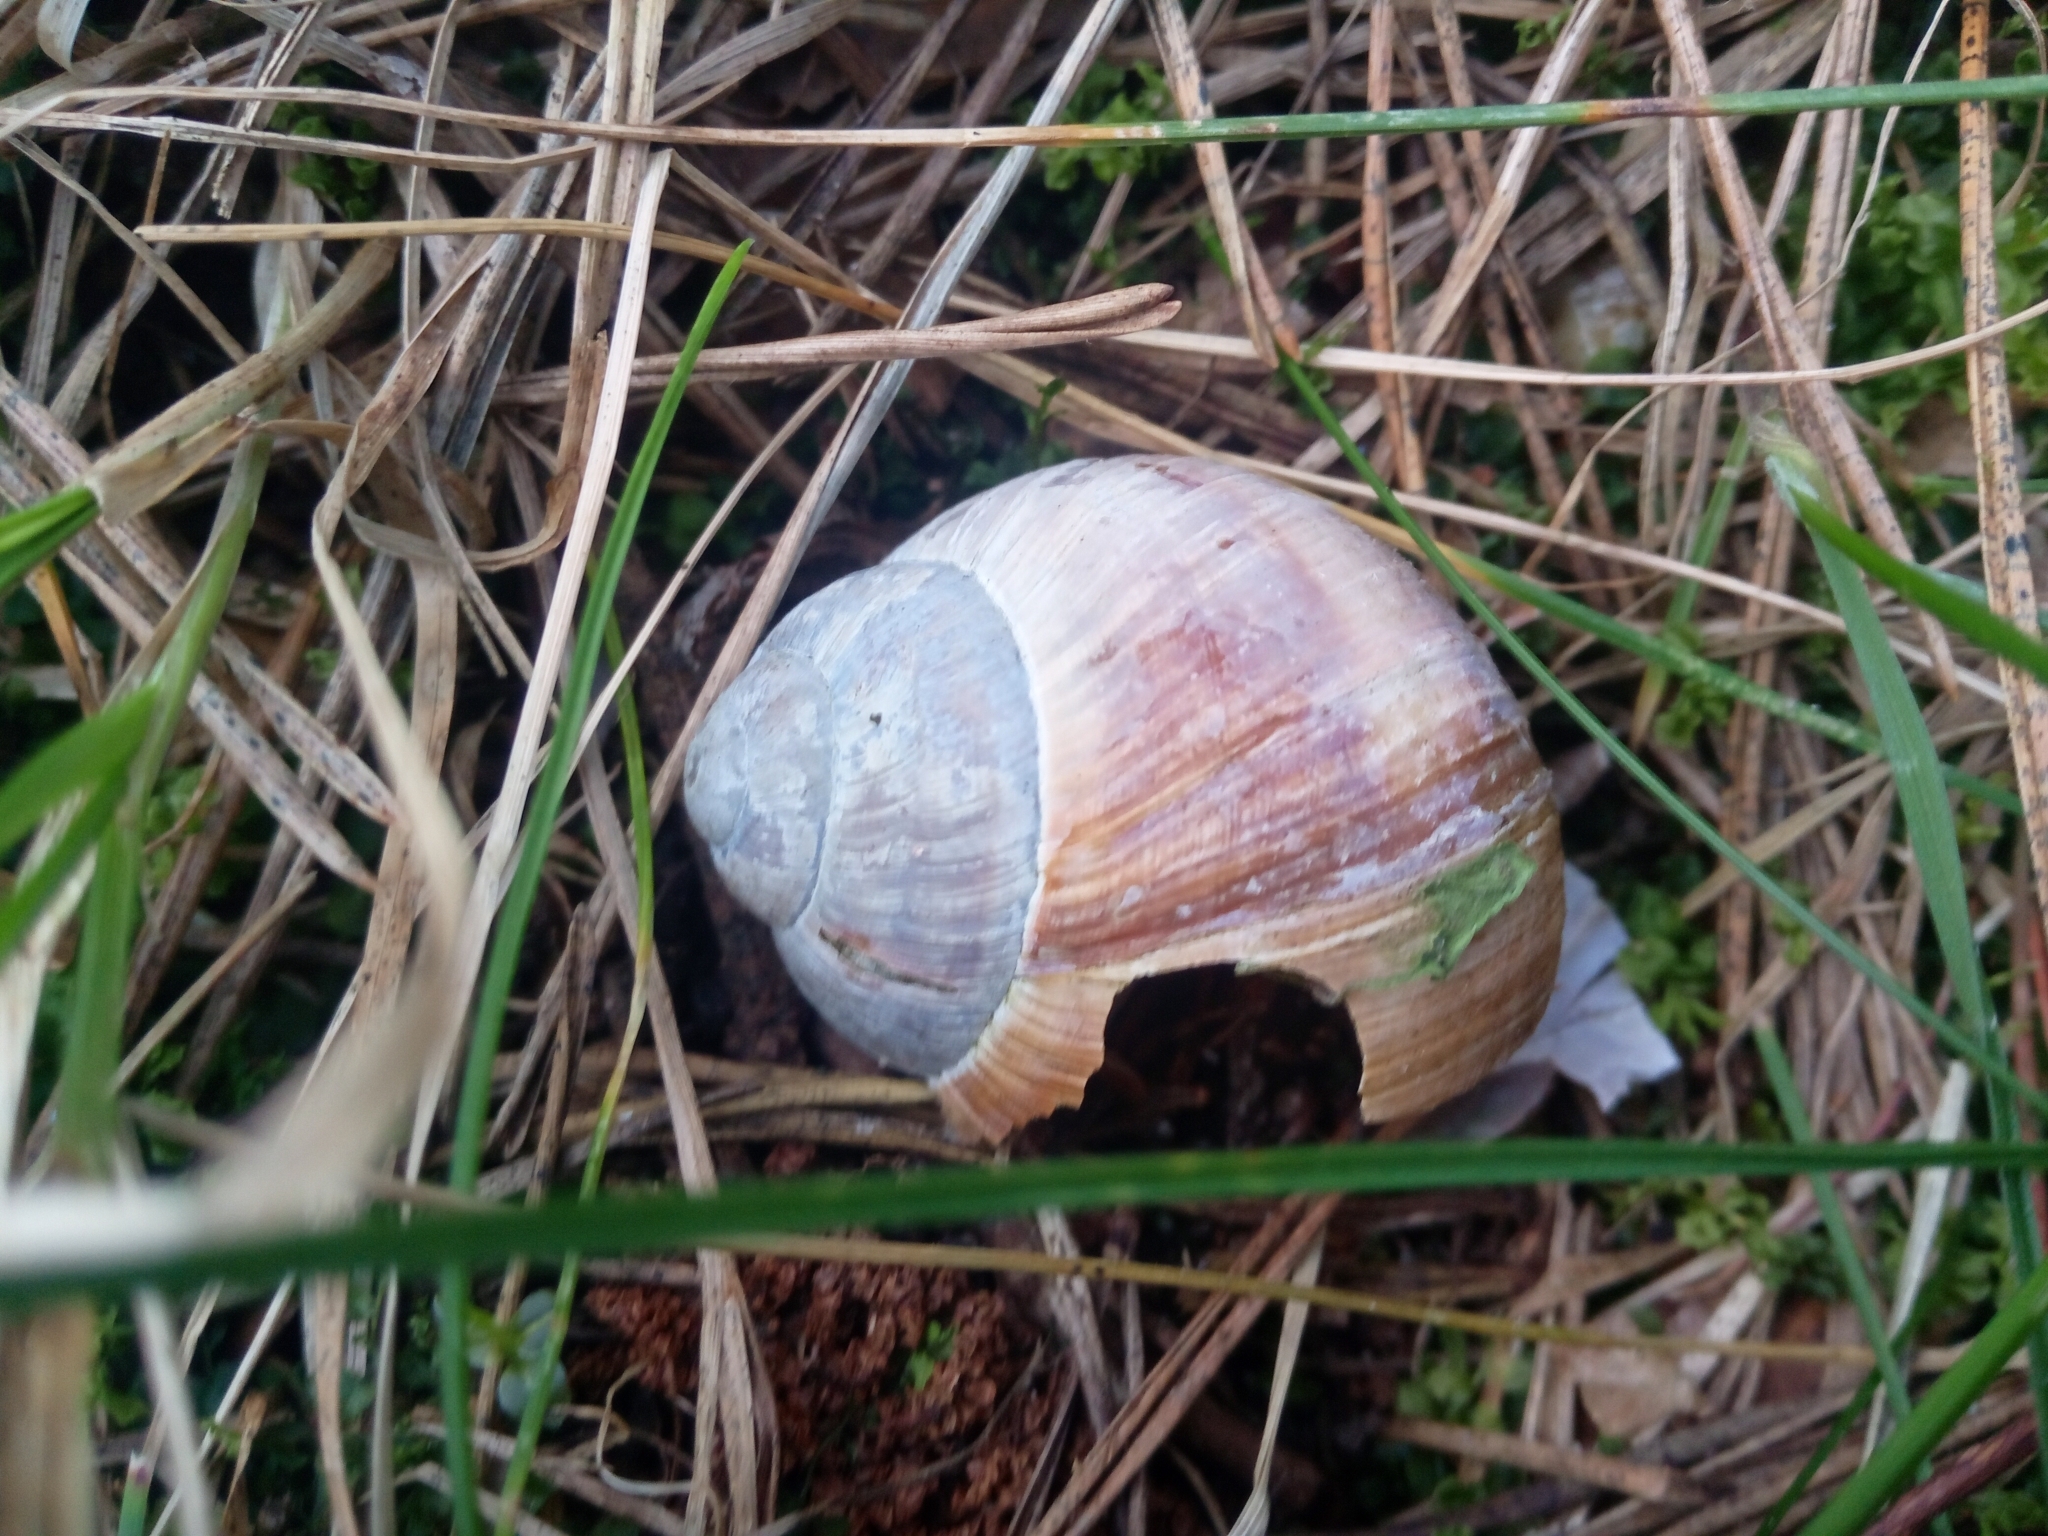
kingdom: Animalia
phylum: Mollusca
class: Gastropoda
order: Stylommatophora
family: Helicidae
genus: Helix
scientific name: Helix pomatia
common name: Roman snail
